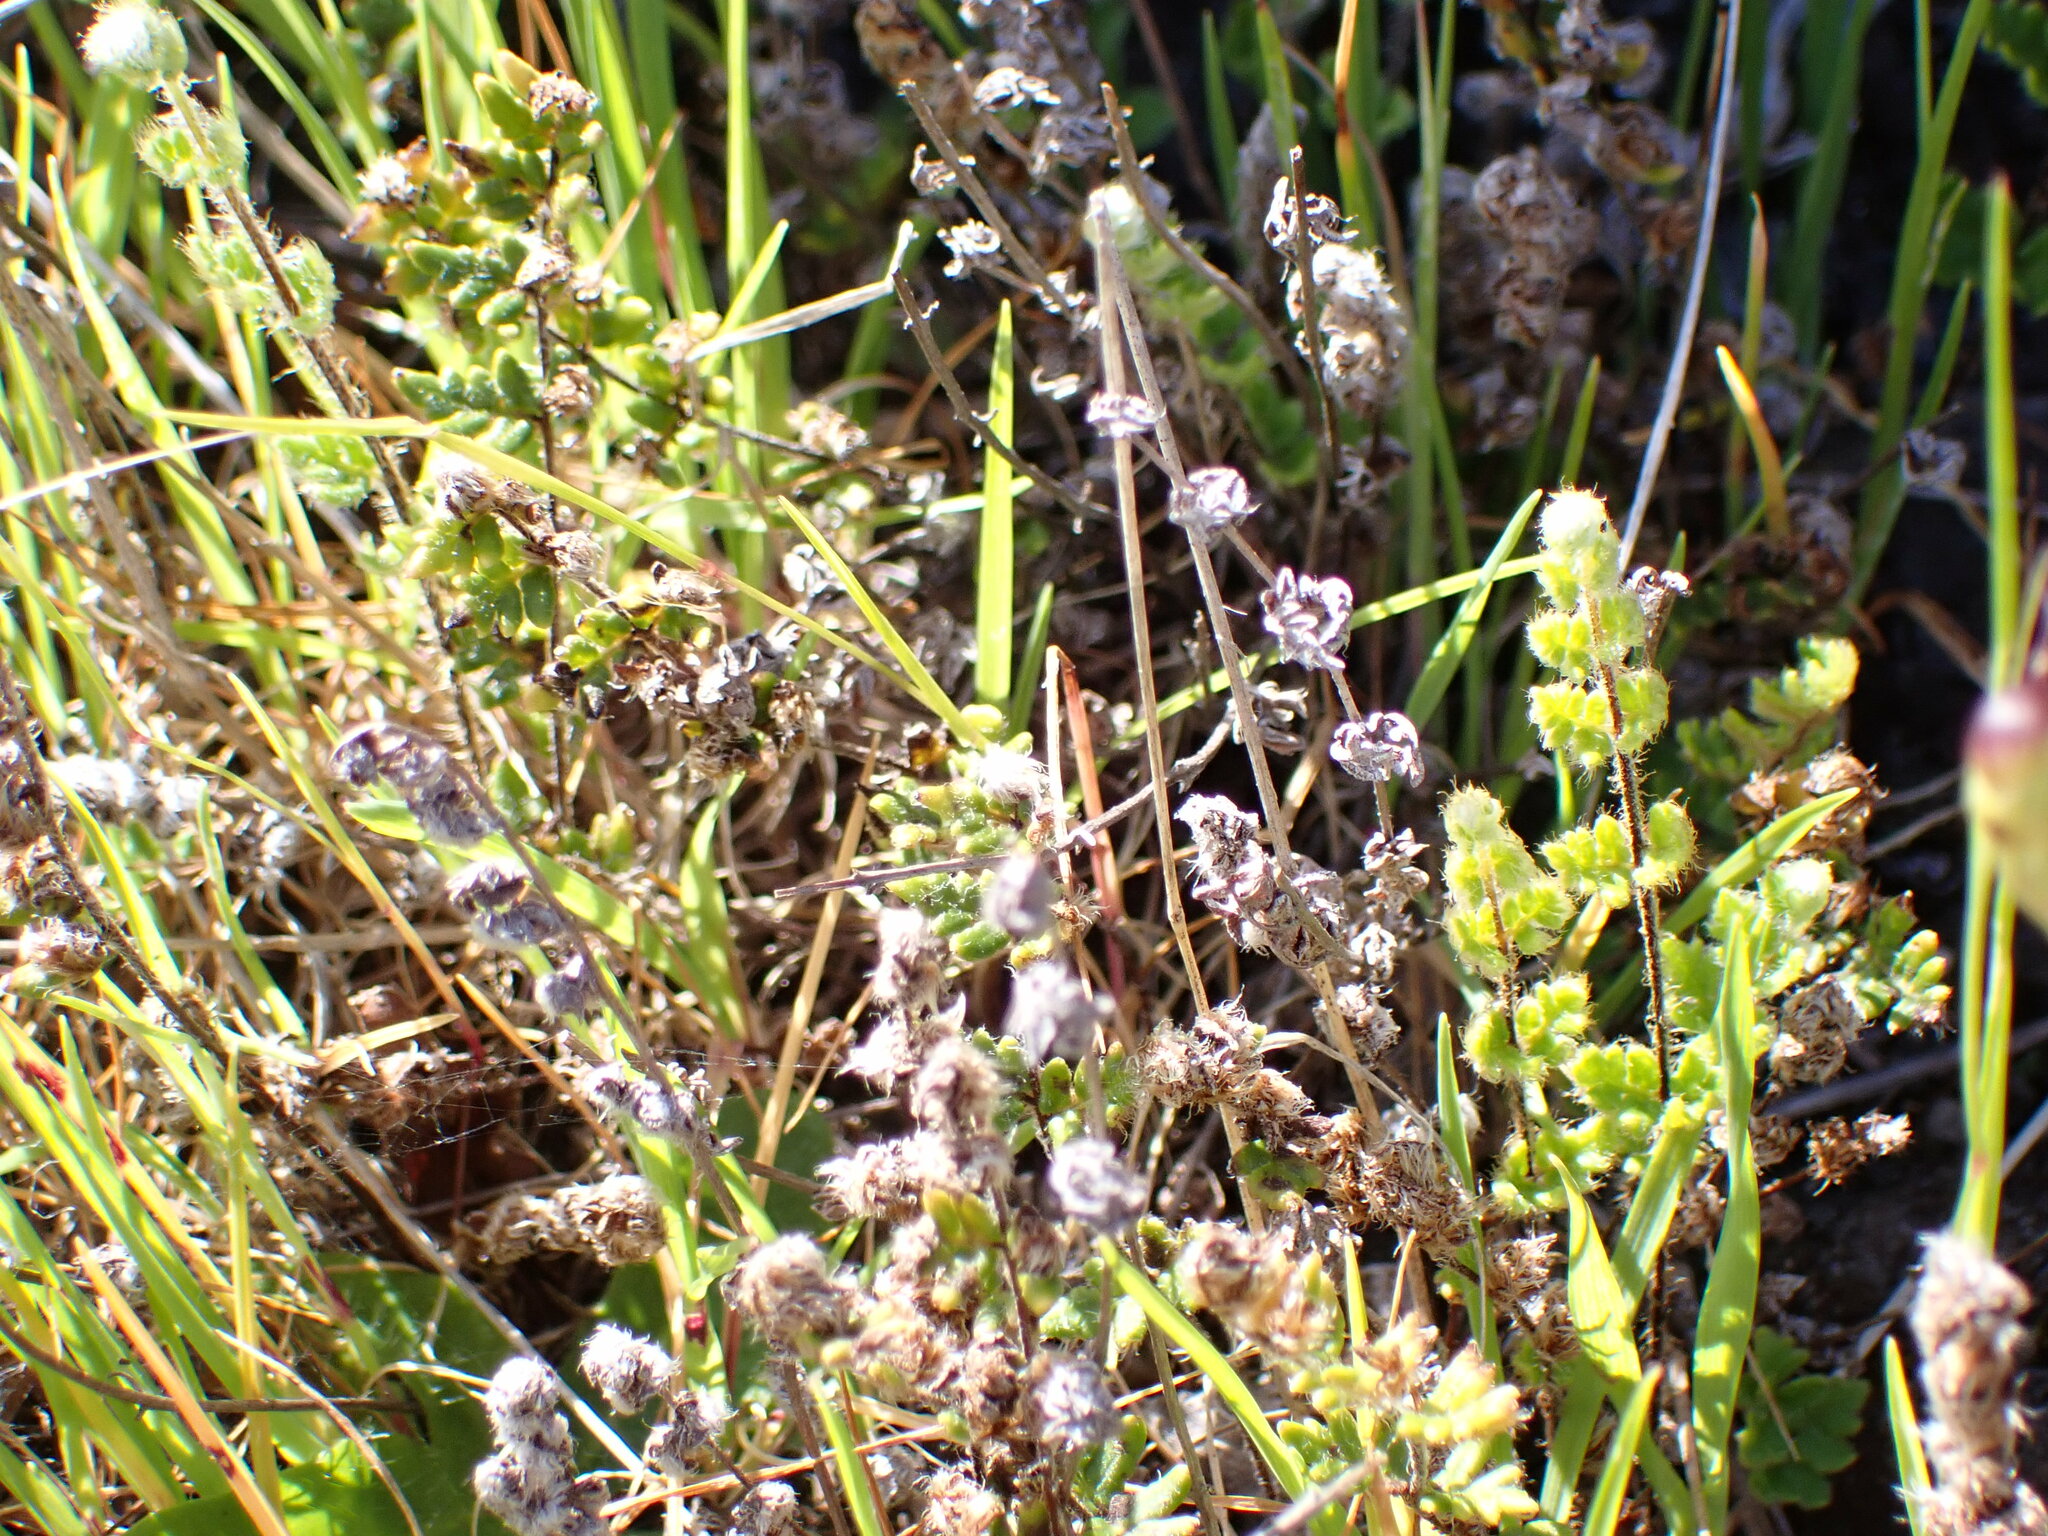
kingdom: Plantae
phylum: Tracheophyta
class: Polypodiopsida
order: Polypodiales
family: Pteridaceae
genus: Cheilanthes
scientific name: Cheilanthes distans
